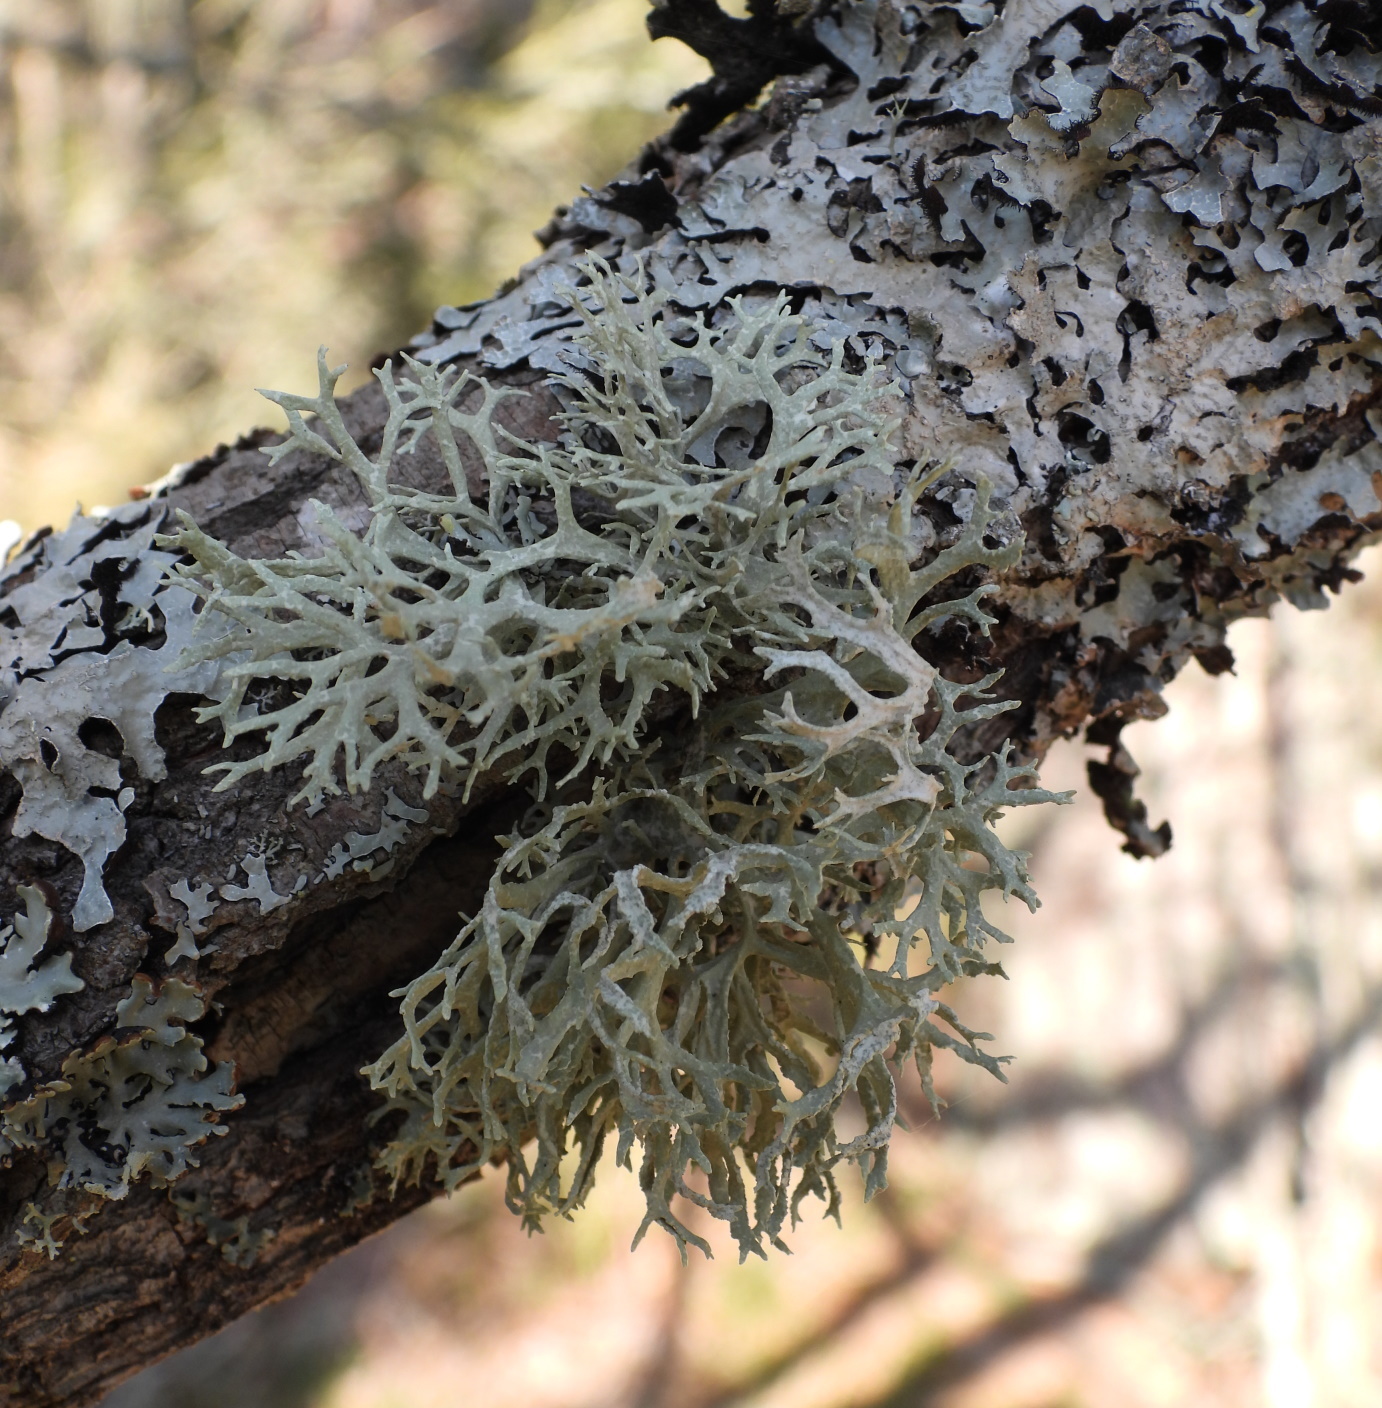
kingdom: Fungi
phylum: Ascomycota
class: Lecanoromycetes
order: Lecanorales
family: Parmeliaceae
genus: Evernia
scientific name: Evernia prunastri
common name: Oak moss
